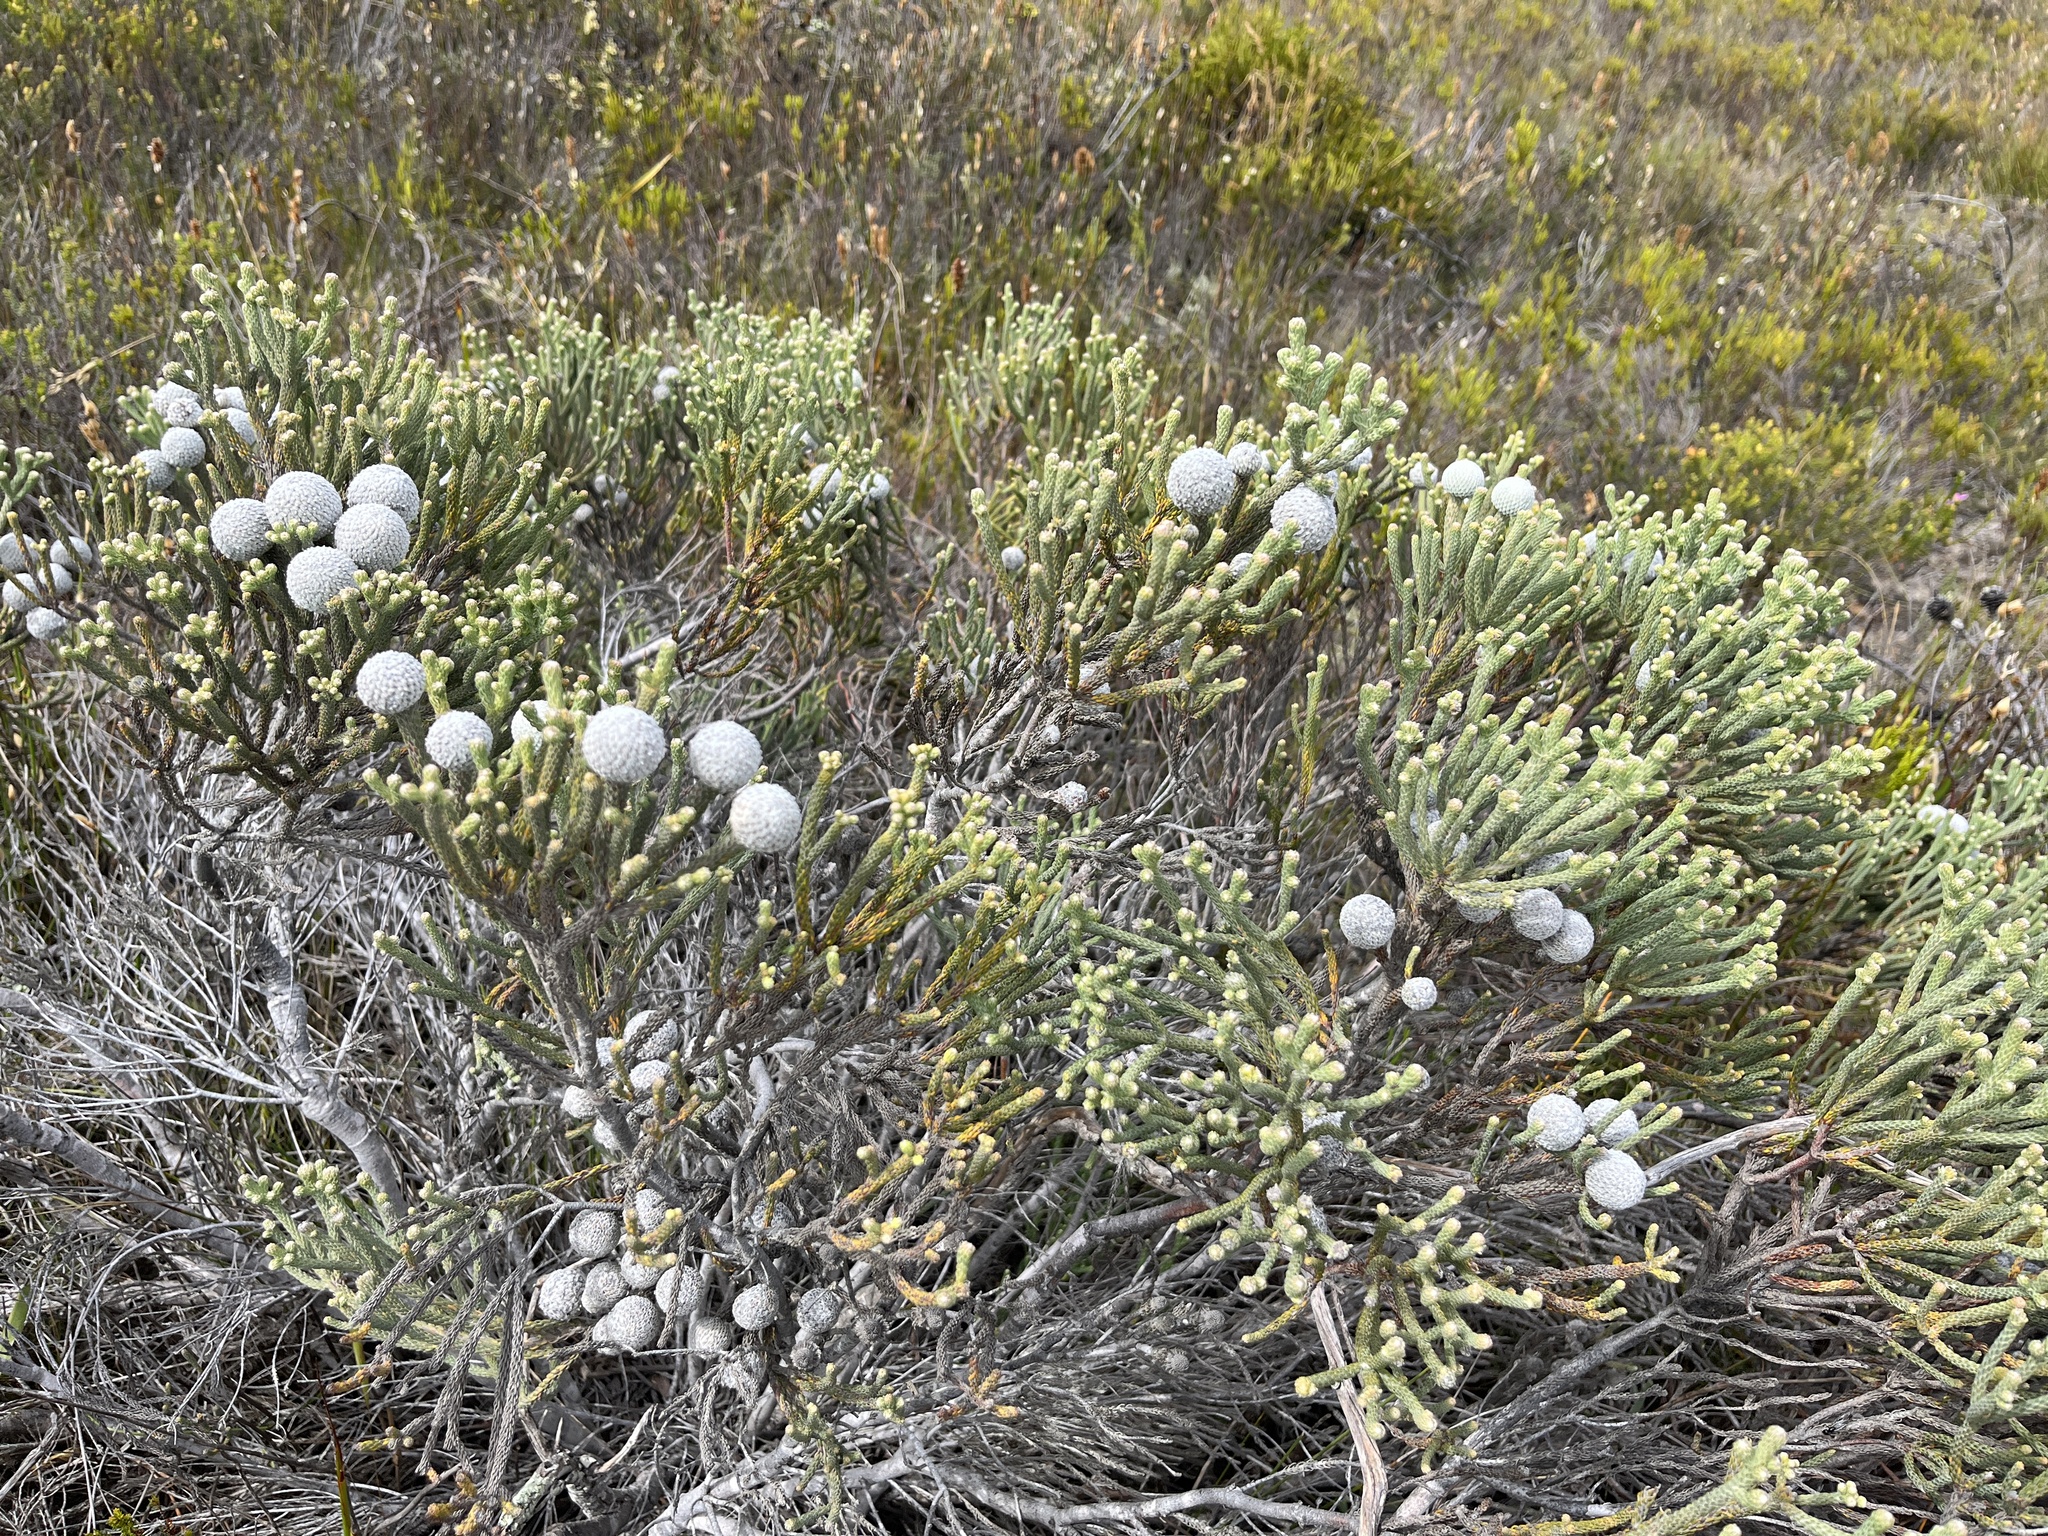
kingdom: Plantae
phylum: Tracheophyta
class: Magnoliopsida
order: Bruniales
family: Bruniaceae
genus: Brunia
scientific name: Brunia laevis
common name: Silver brunia
